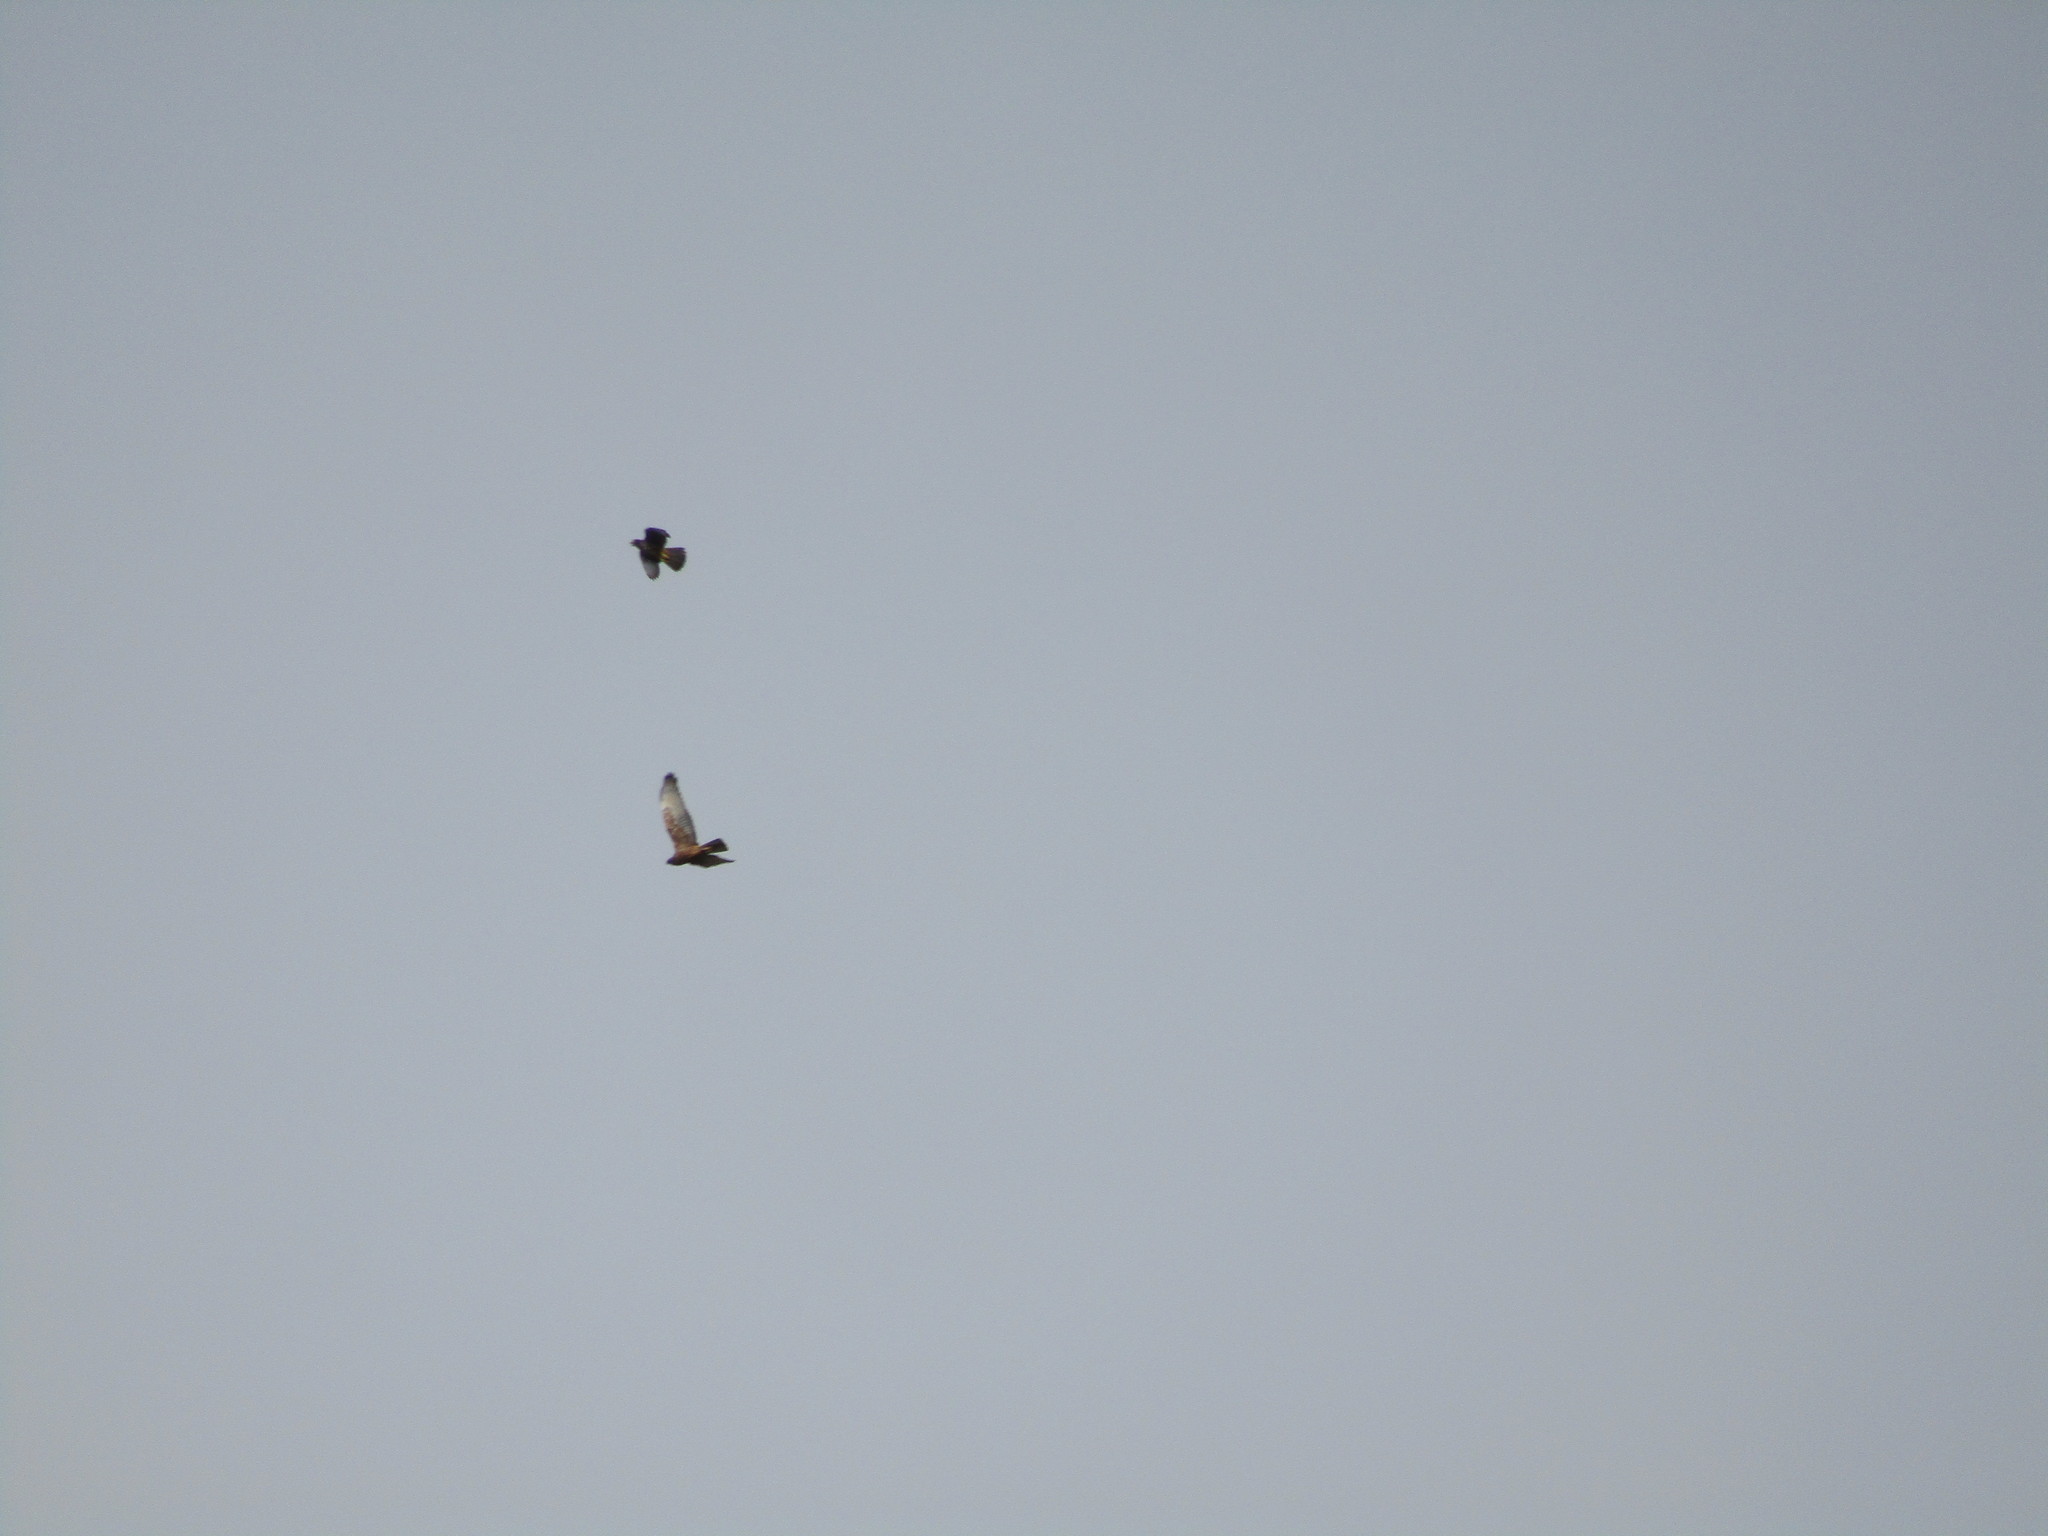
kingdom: Animalia
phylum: Chordata
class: Aves
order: Accipitriformes
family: Accipitridae
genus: Circus
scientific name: Circus approximans
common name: Swamp harrier
